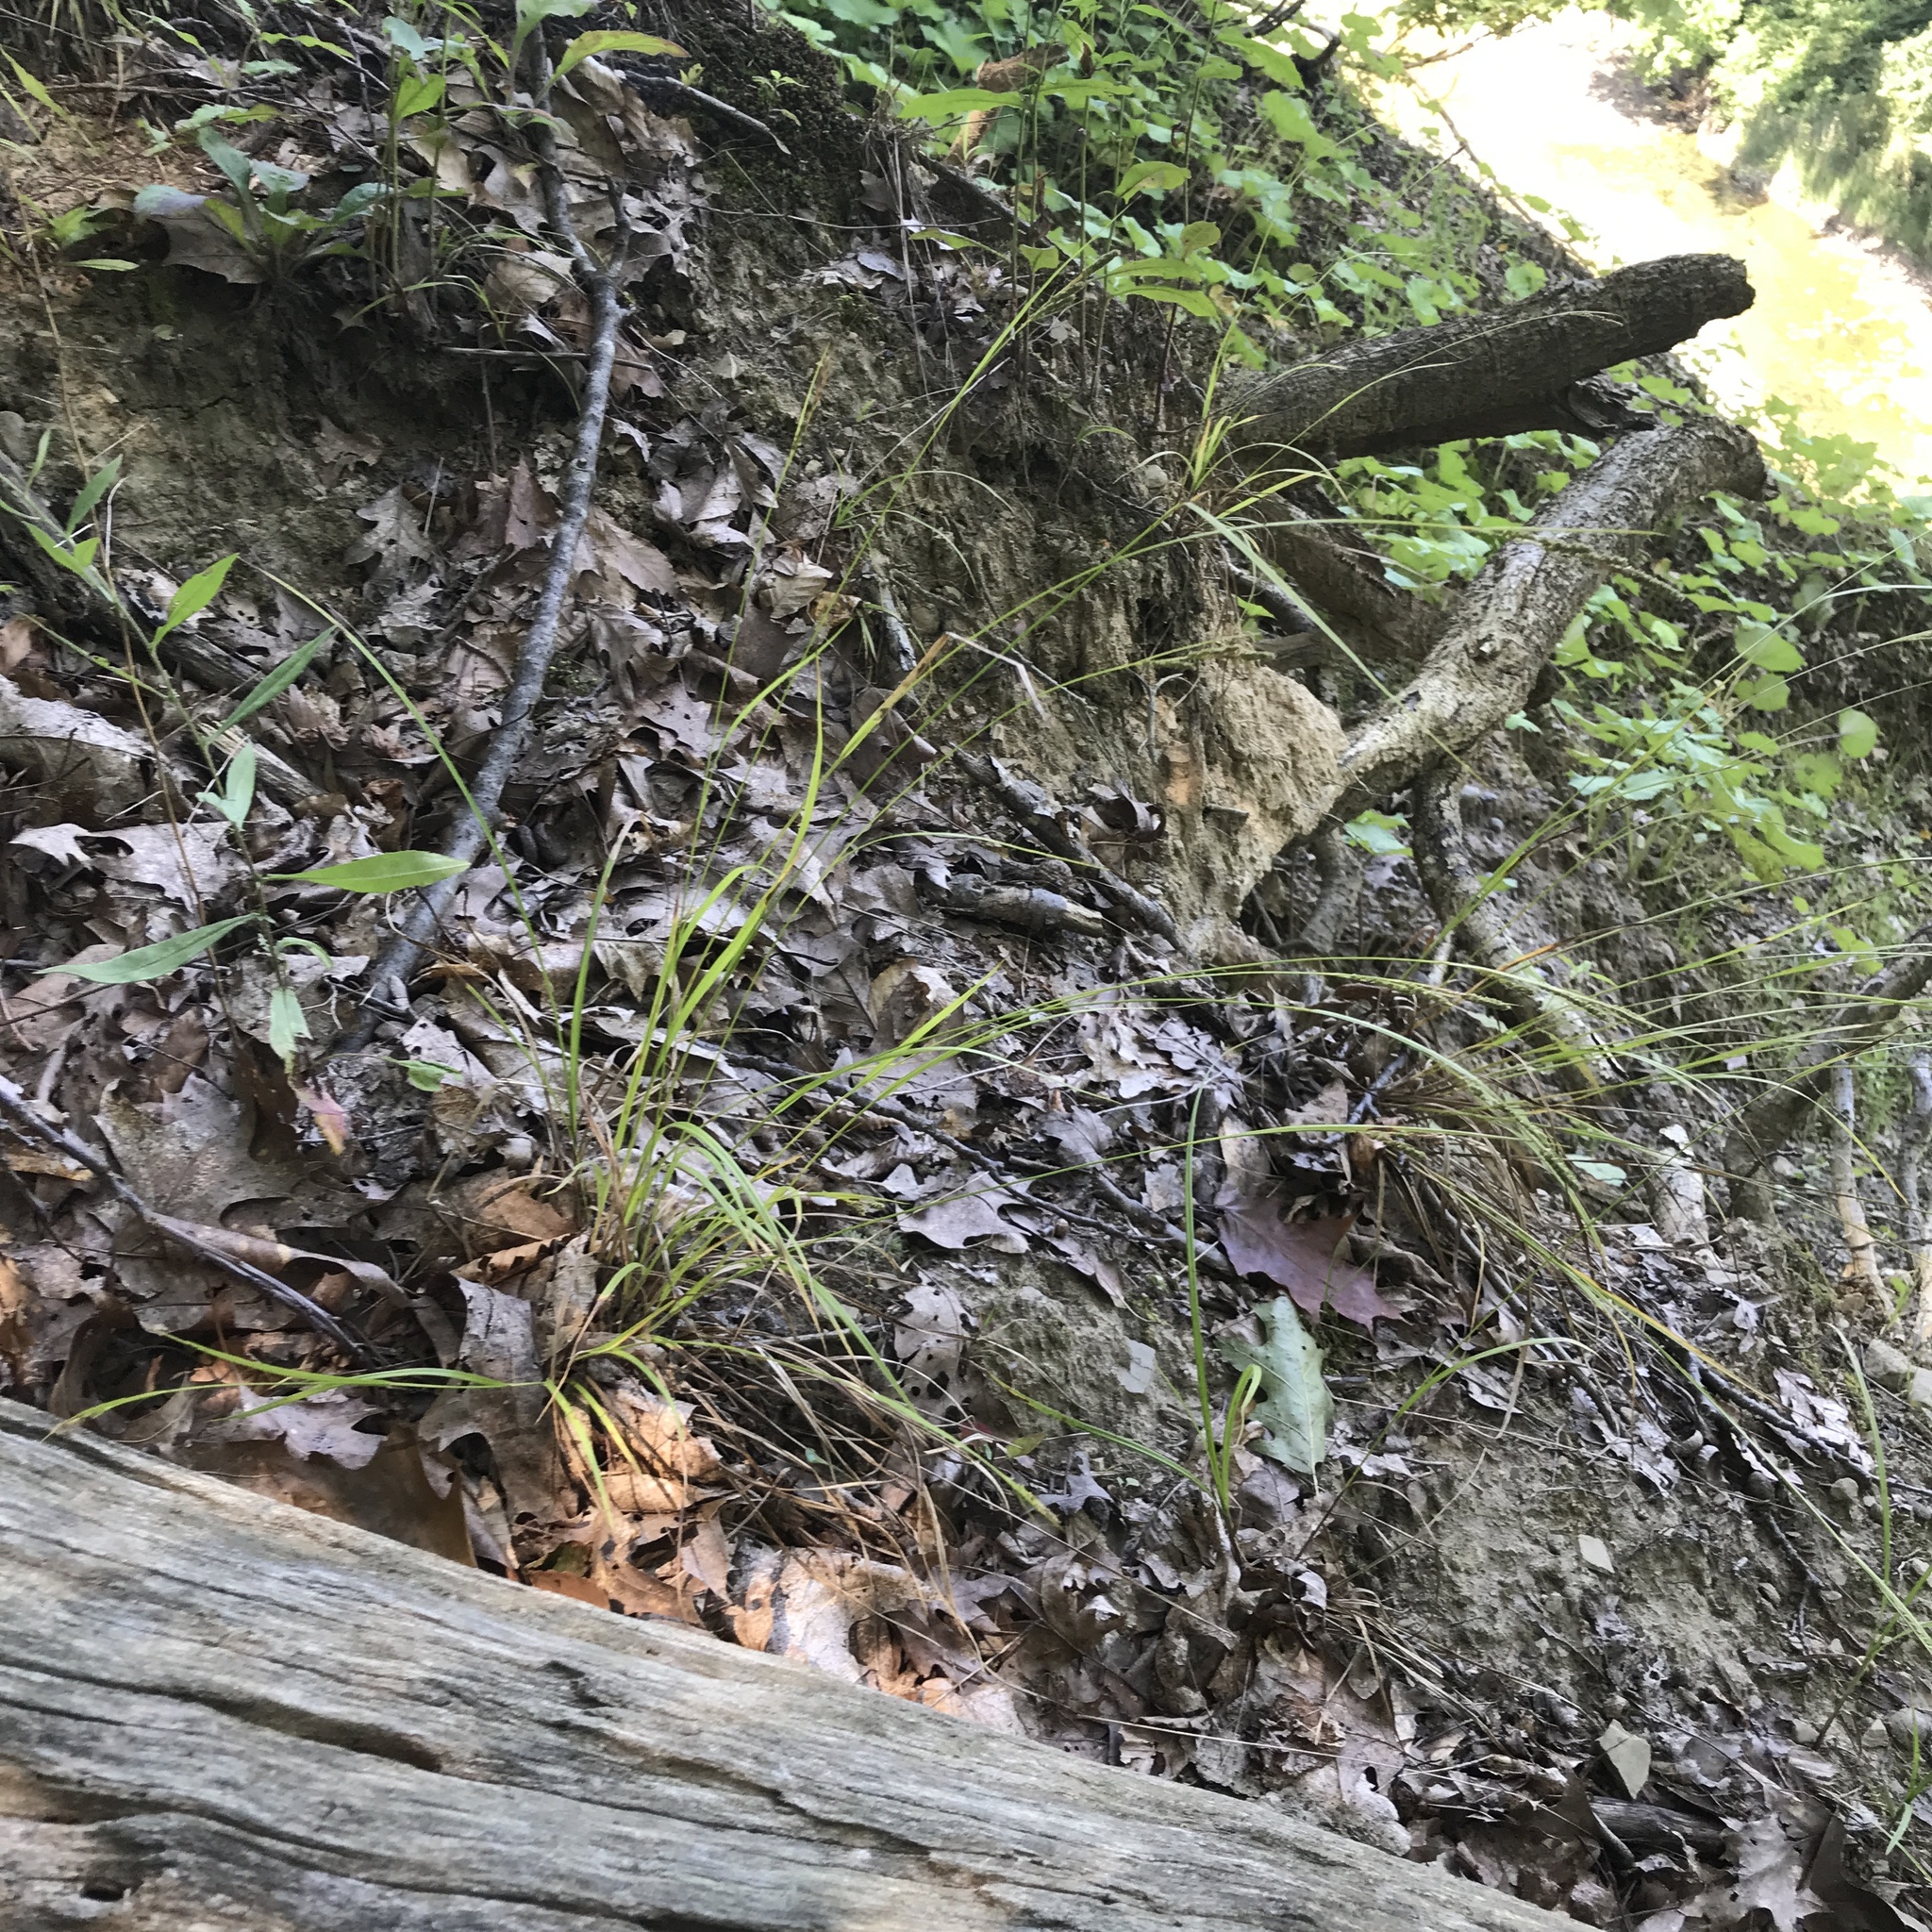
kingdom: Plantae
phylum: Tracheophyta
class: Liliopsida
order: Poales
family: Cyperaceae
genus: Carex
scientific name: Carex virescens
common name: Ribbed sedge
